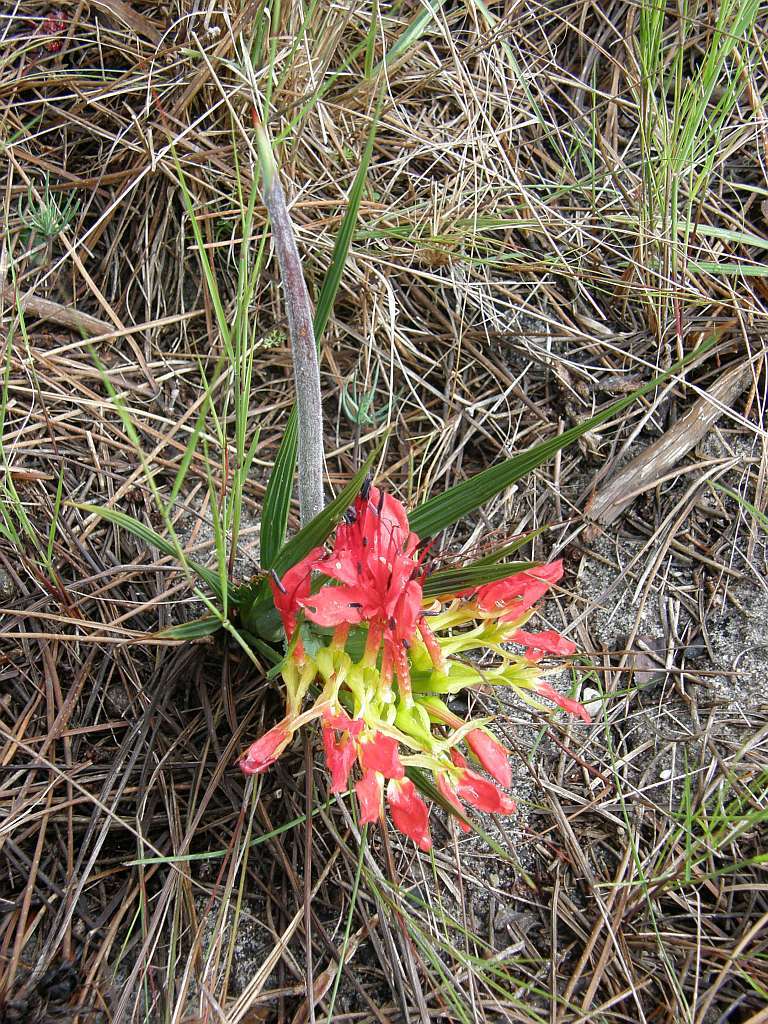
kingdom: Plantae
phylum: Tracheophyta
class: Liliopsida
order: Asparagales
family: Iridaceae
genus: Babiana
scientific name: Babiana ringens
